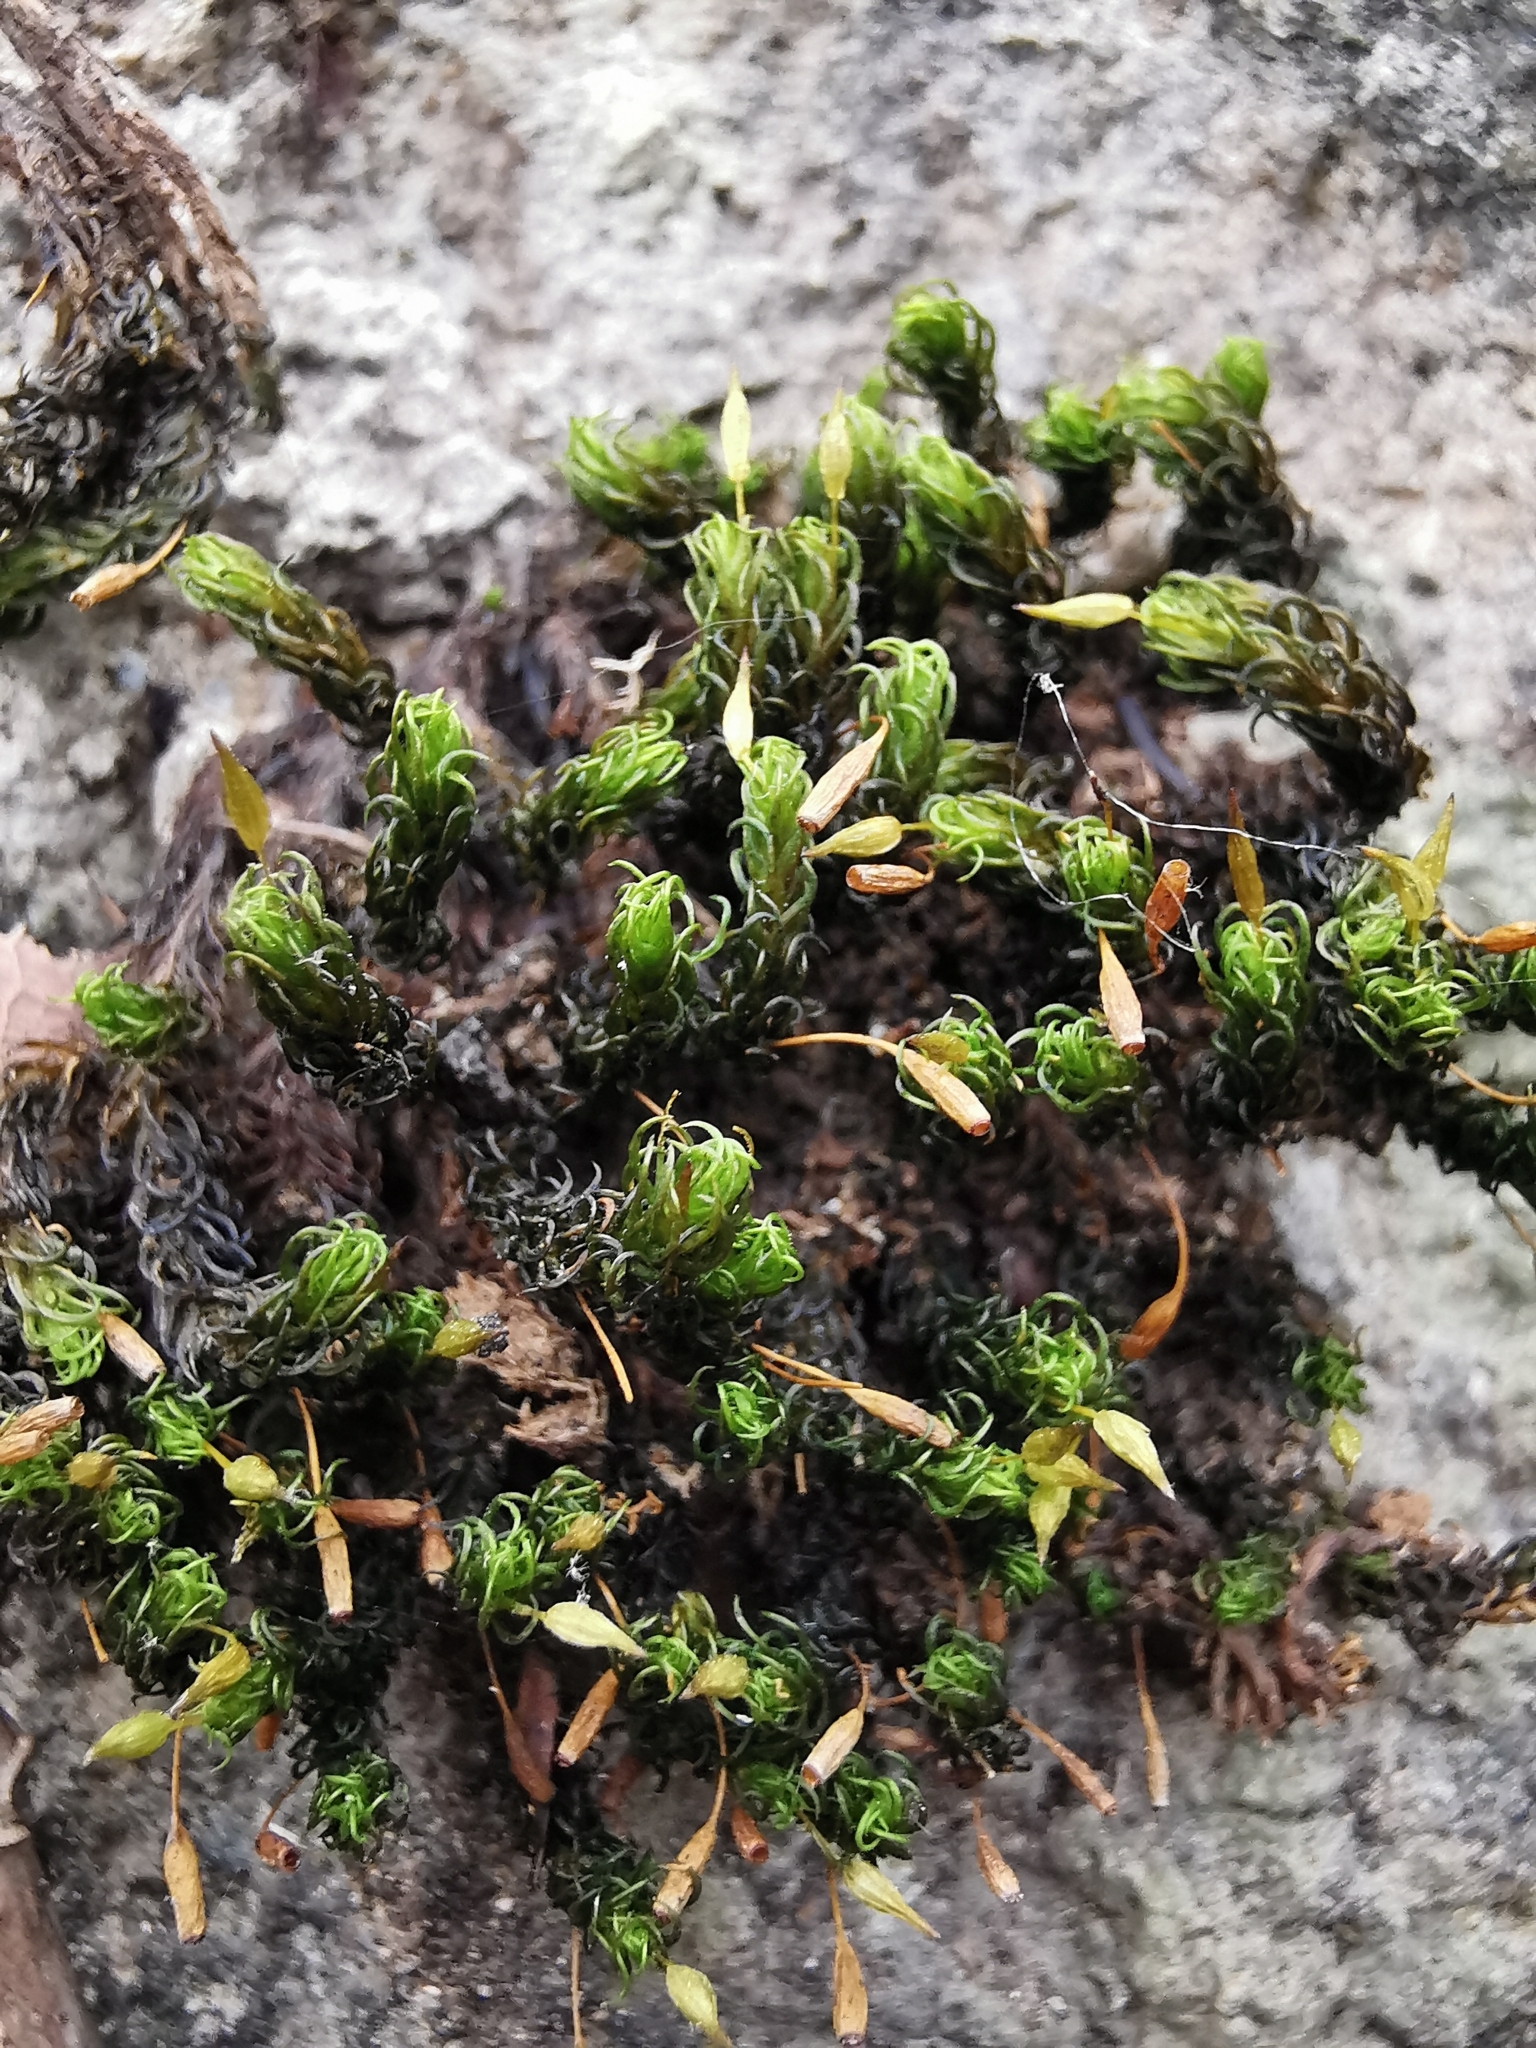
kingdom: Plantae
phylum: Bryophyta
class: Bryopsida
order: Orthotrichales
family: Orthotrichaceae
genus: Ulota
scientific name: Ulota crispa
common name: Crisped pincushion moss
